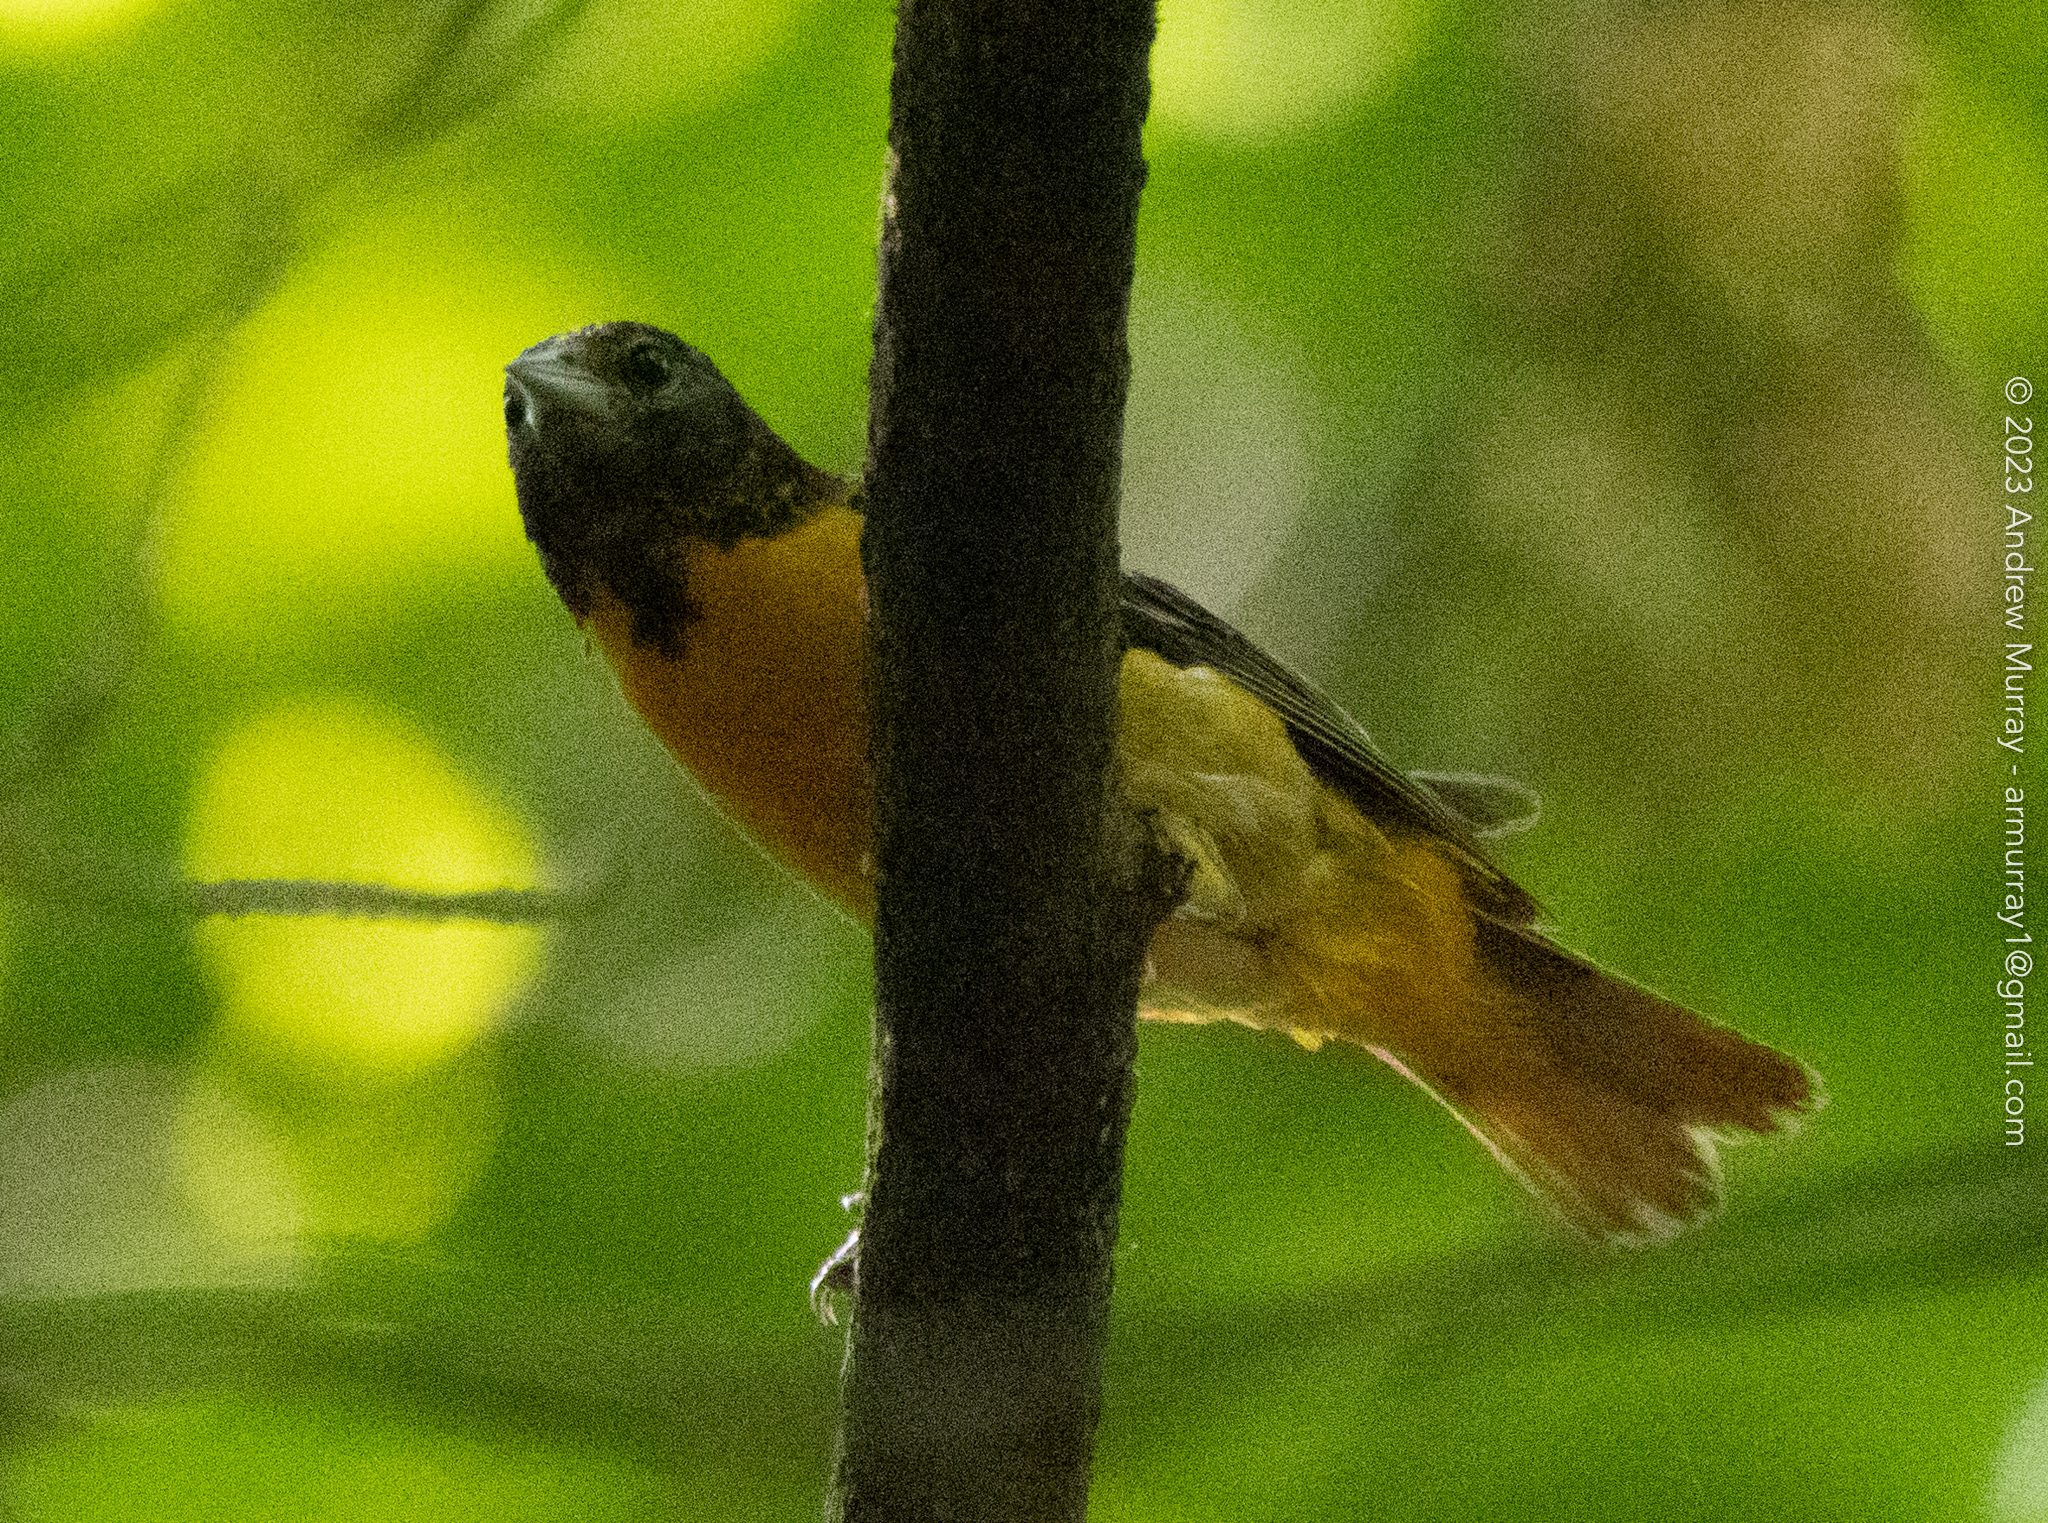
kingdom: Animalia
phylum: Chordata
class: Aves
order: Passeriformes
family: Icteridae
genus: Icterus
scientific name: Icterus galbula
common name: Baltimore oriole
